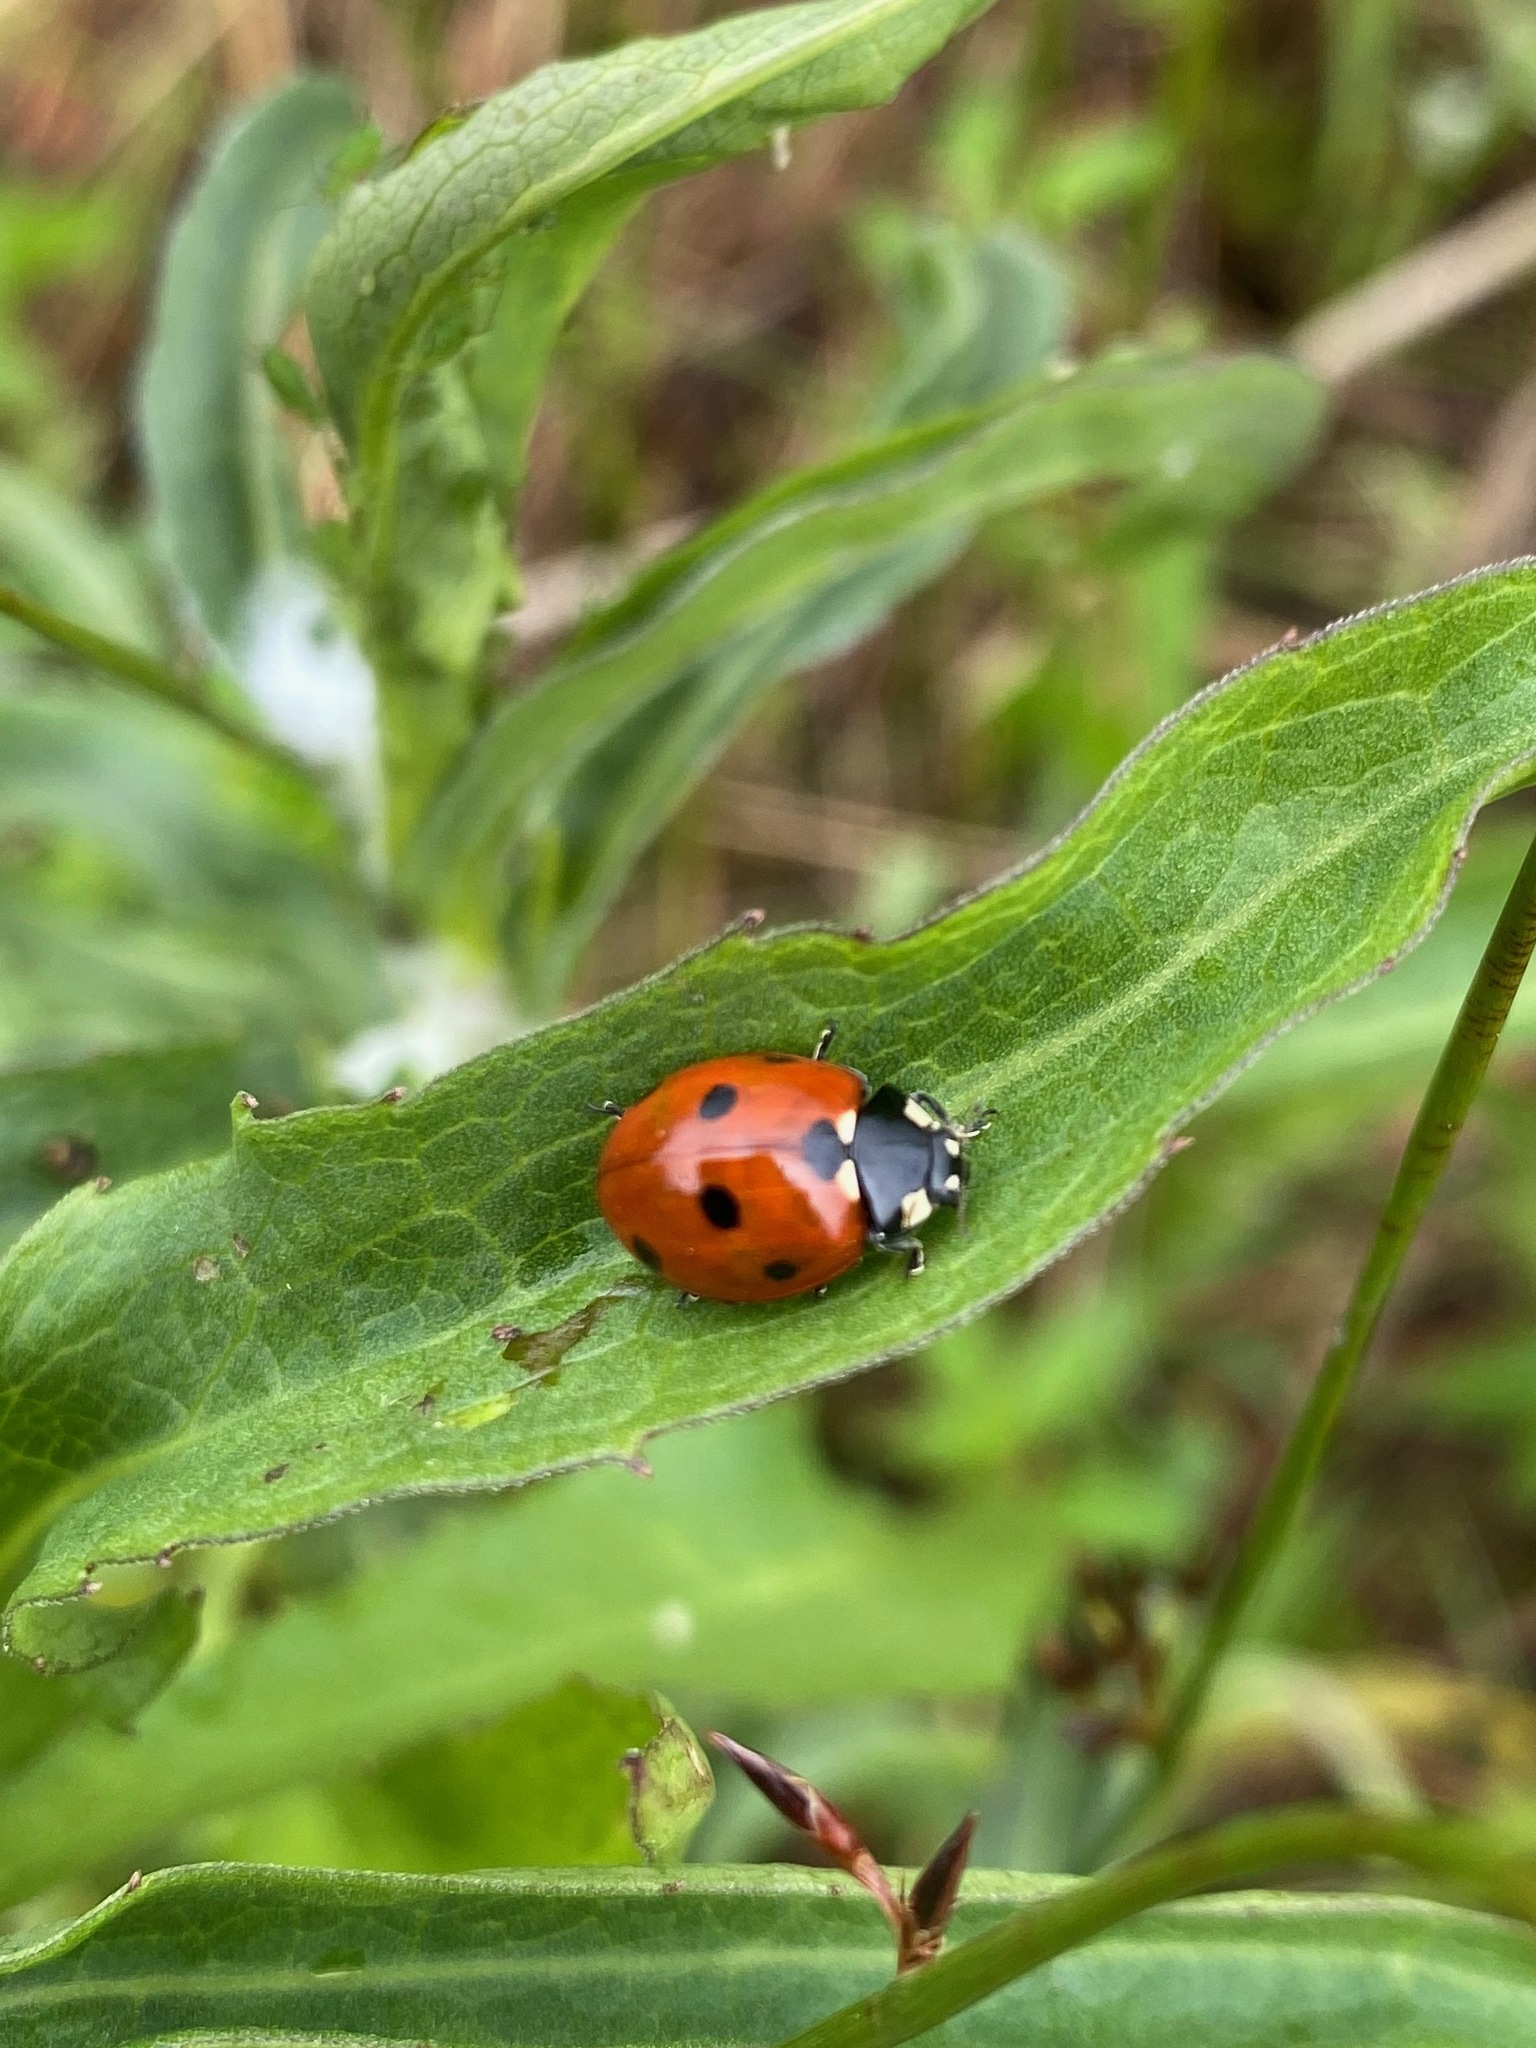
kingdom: Animalia
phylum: Arthropoda
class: Insecta
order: Coleoptera
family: Coccinellidae
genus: Coccinella
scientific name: Coccinella septempunctata
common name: Sevenspotted lady beetle
